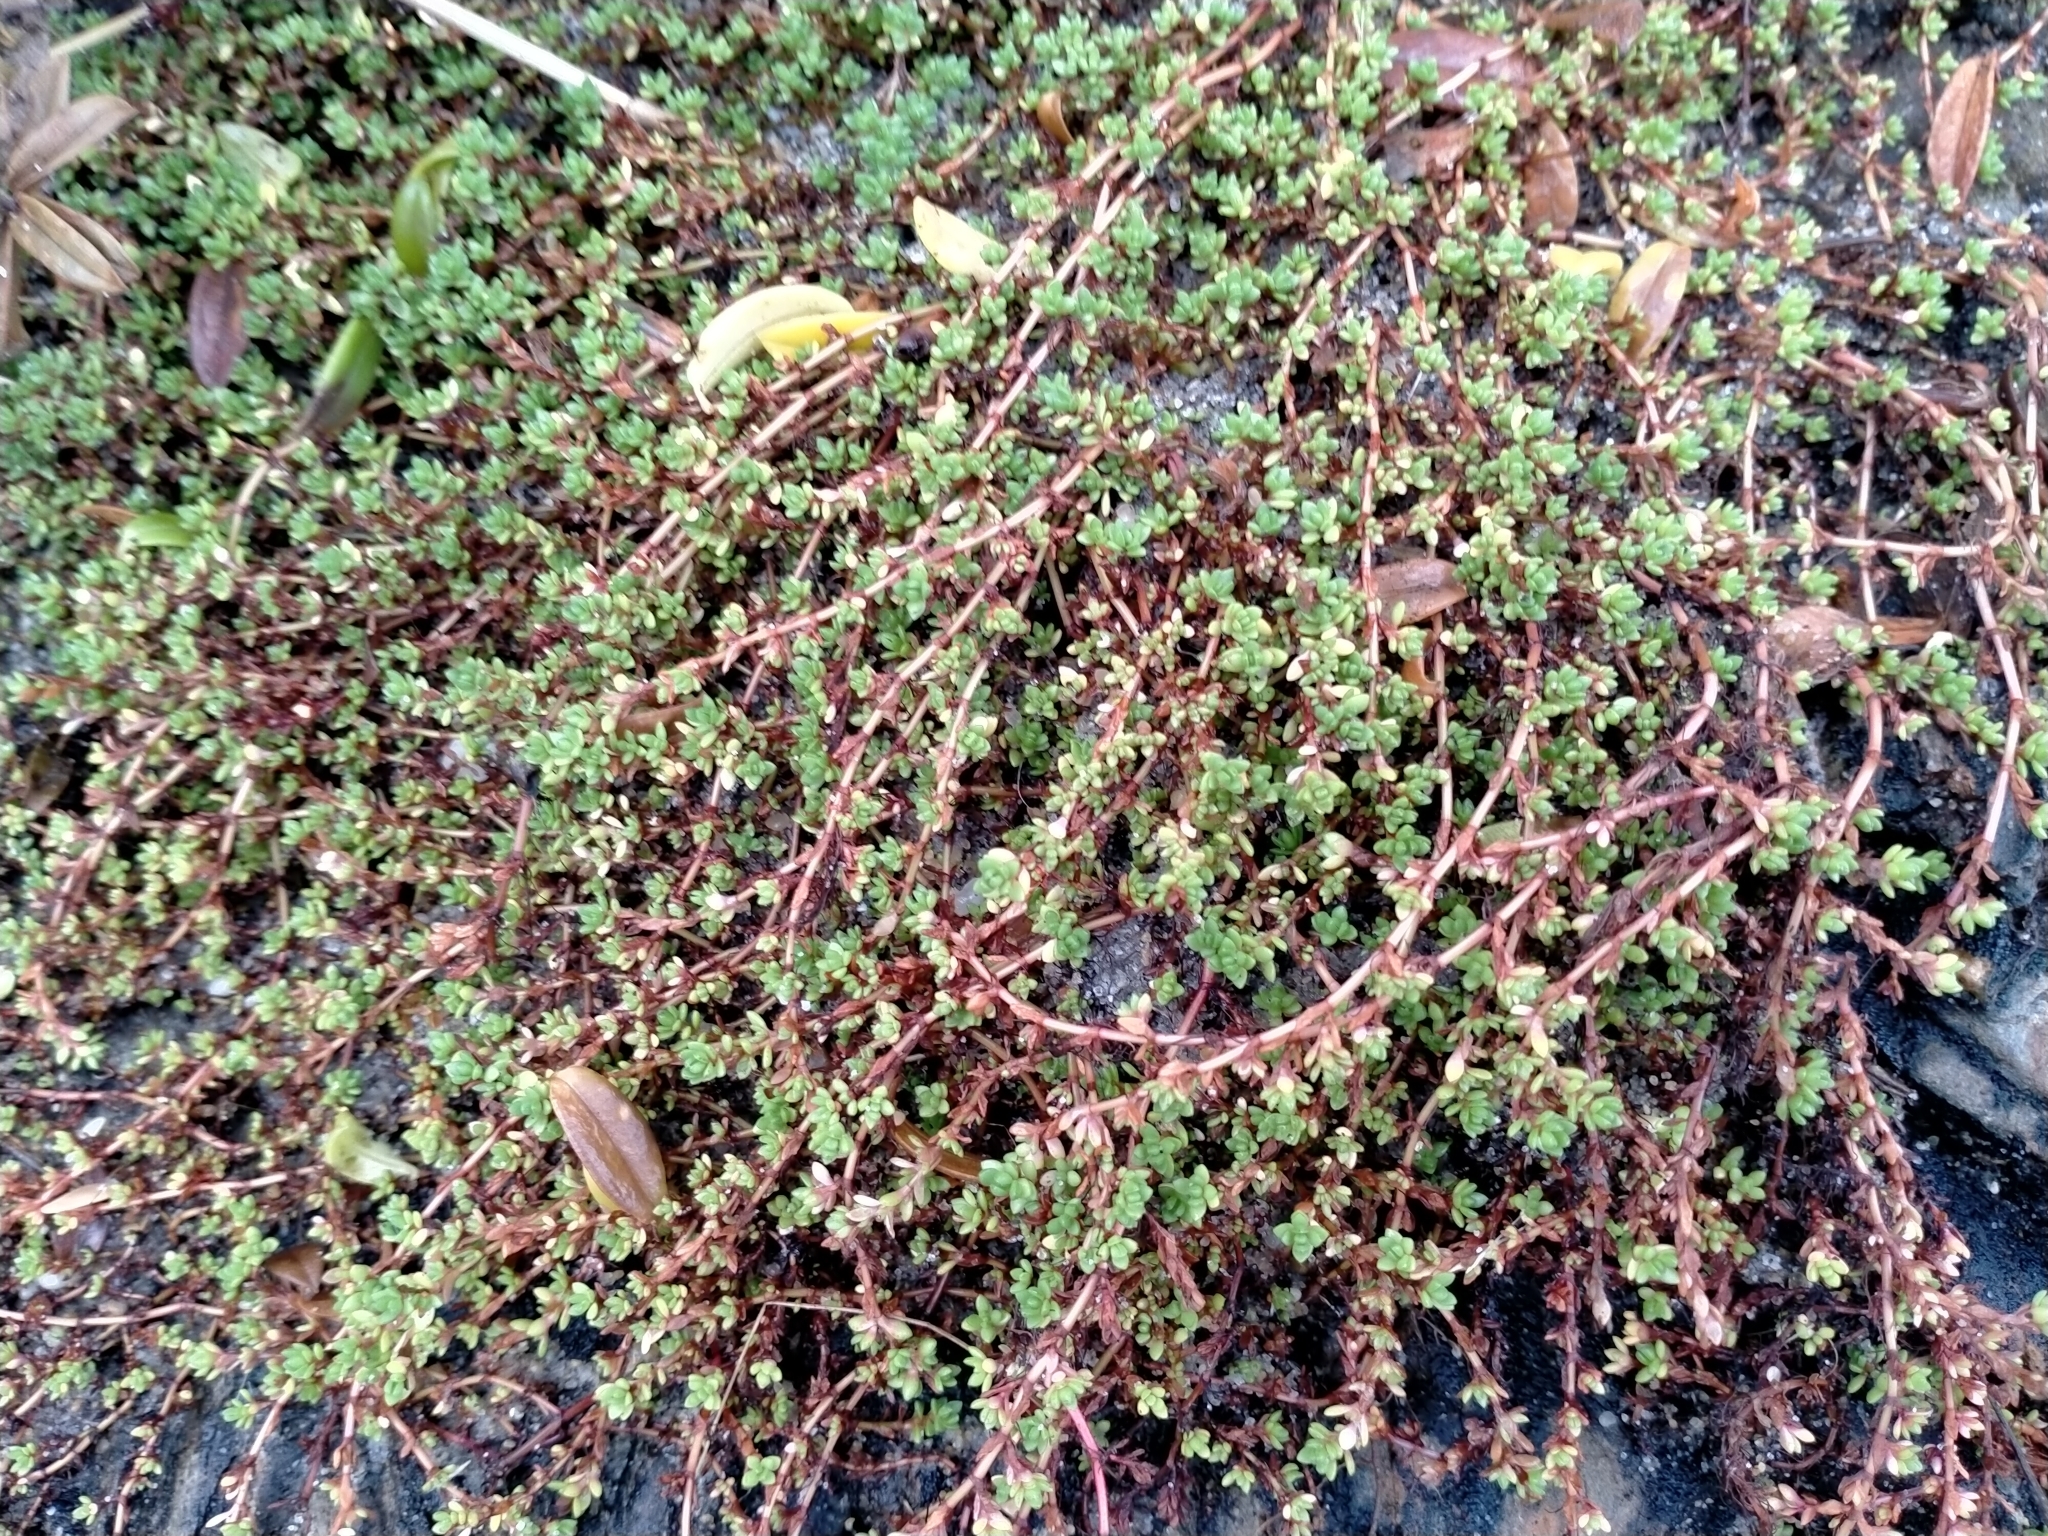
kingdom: Plantae
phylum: Tracheophyta
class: Magnoliopsida
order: Saxifragales
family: Crassulaceae
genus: Crassula
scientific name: Crassula moschata
